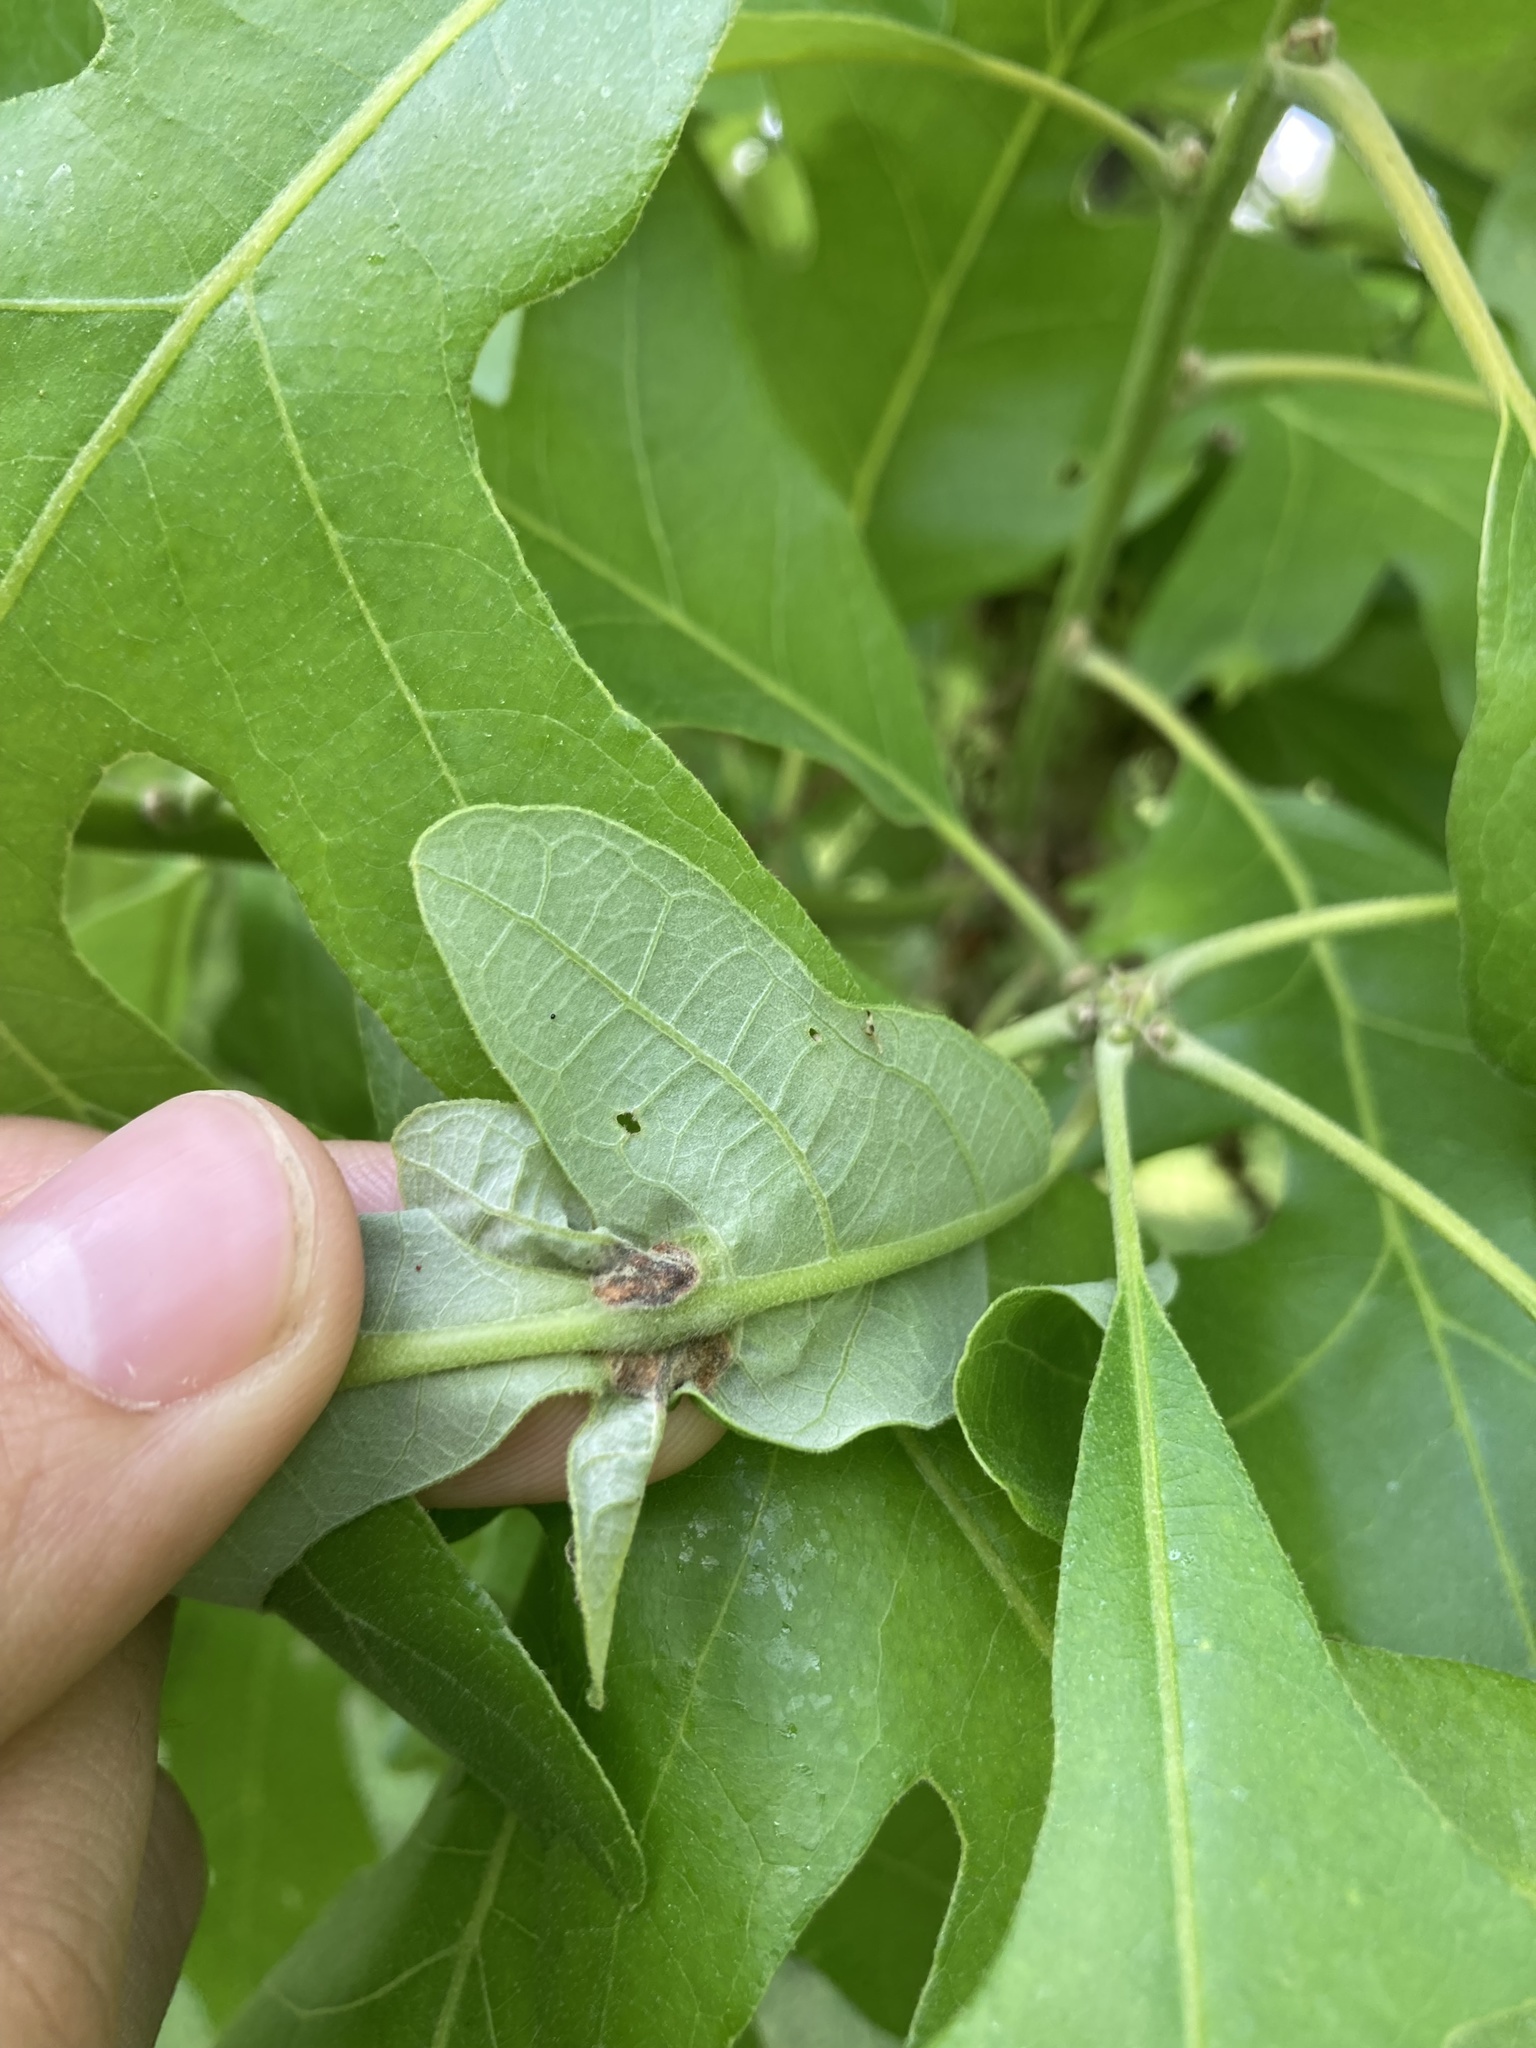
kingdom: Animalia
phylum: Arthropoda
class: Insecta
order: Hymenoptera
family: Cynipidae
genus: Bassettia
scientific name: Bassettia flavipes
